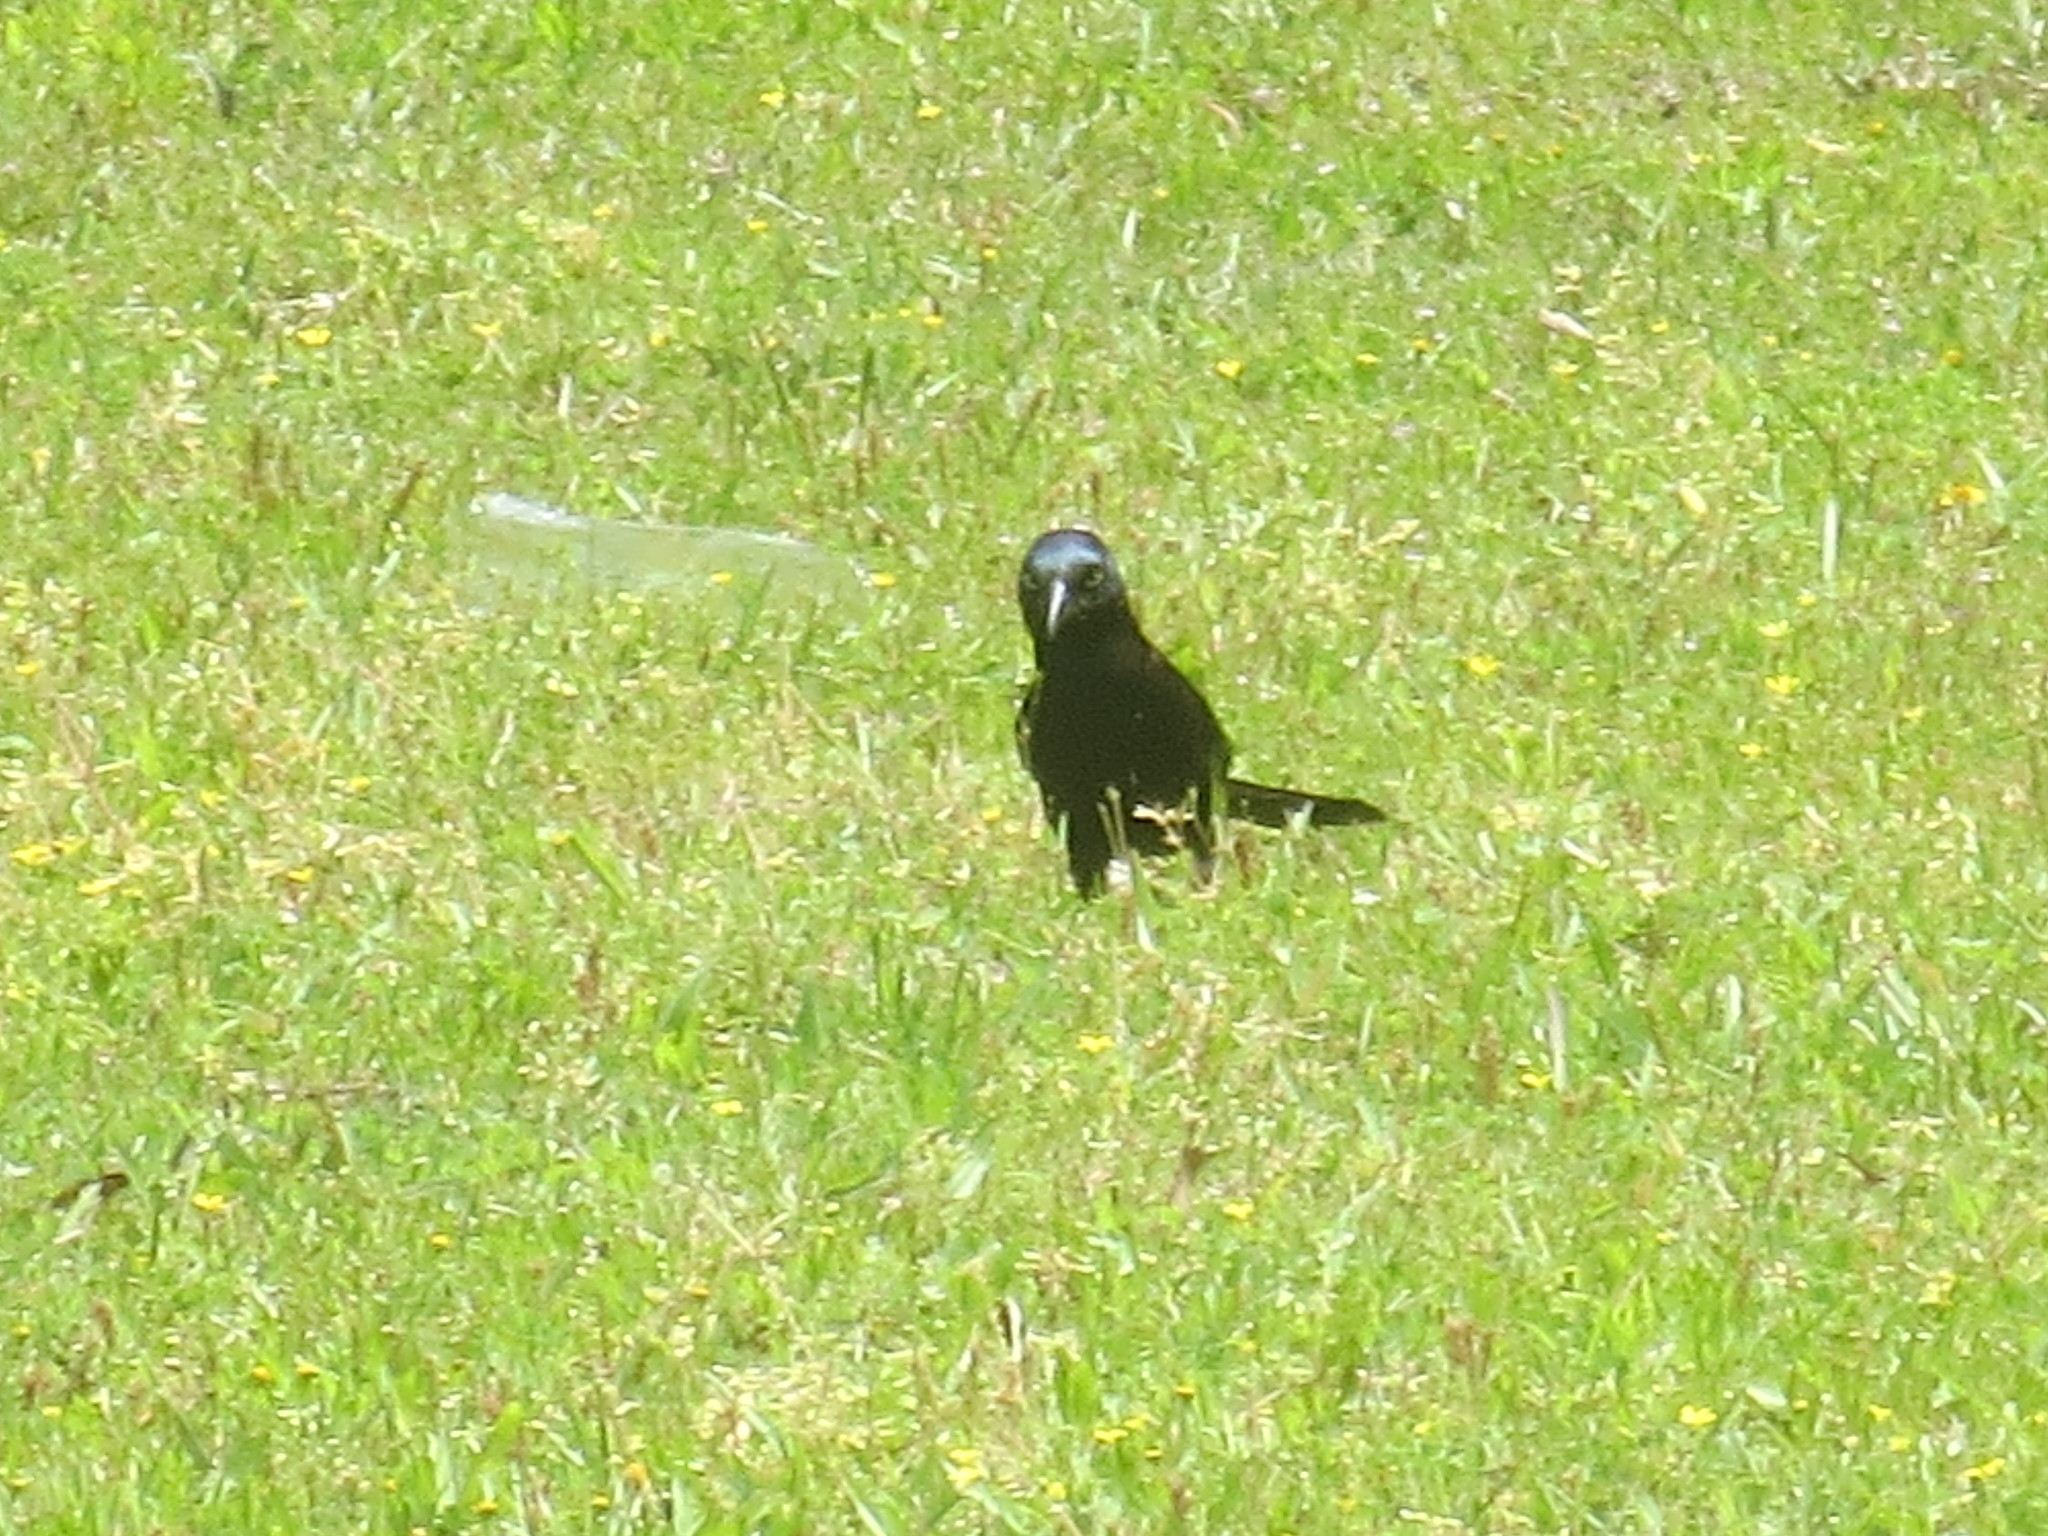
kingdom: Animalia
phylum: Chordata
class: Aves
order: Passeriformes
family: Icteridae
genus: Quiscalus
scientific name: Quiscalus quiscula
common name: Common grackle
